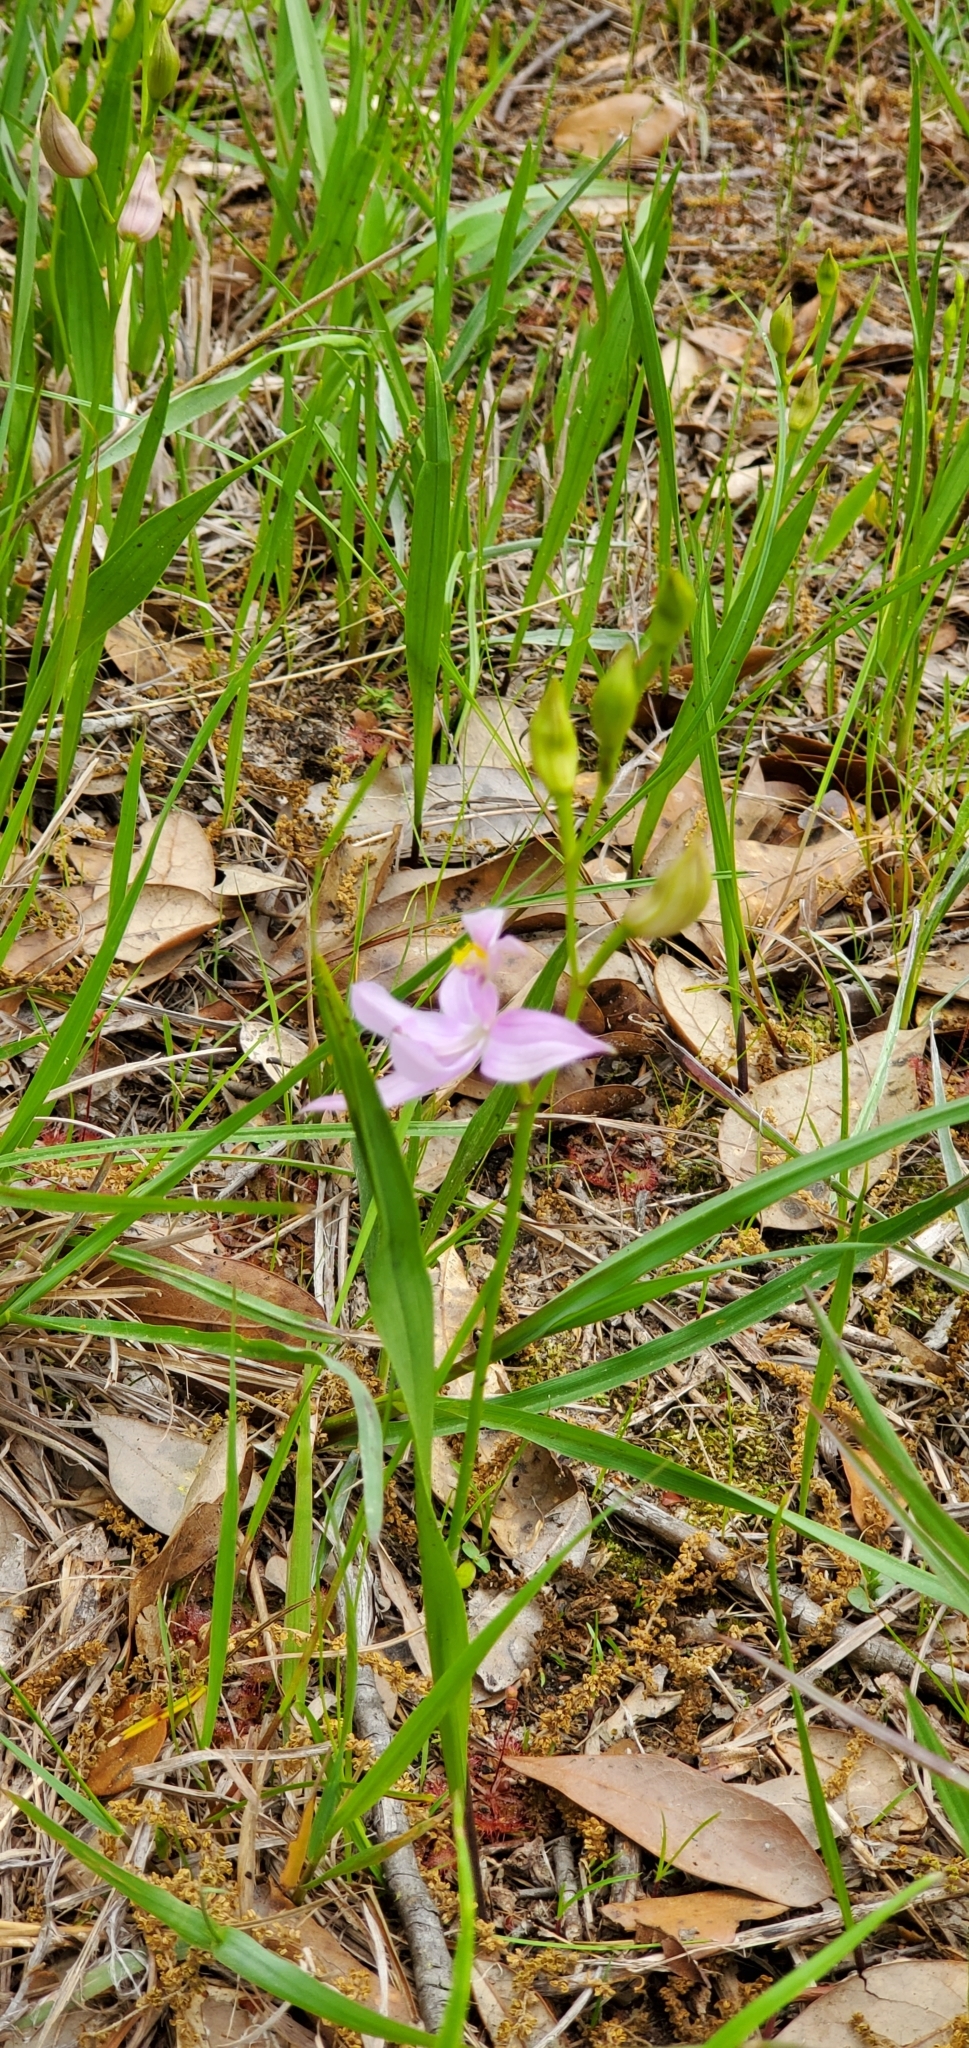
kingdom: Plantae
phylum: Tracheophyta
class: Liliopsida
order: Asparagales
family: Orchidaceae
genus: Calopogon
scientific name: Calopogon oklahomensis
